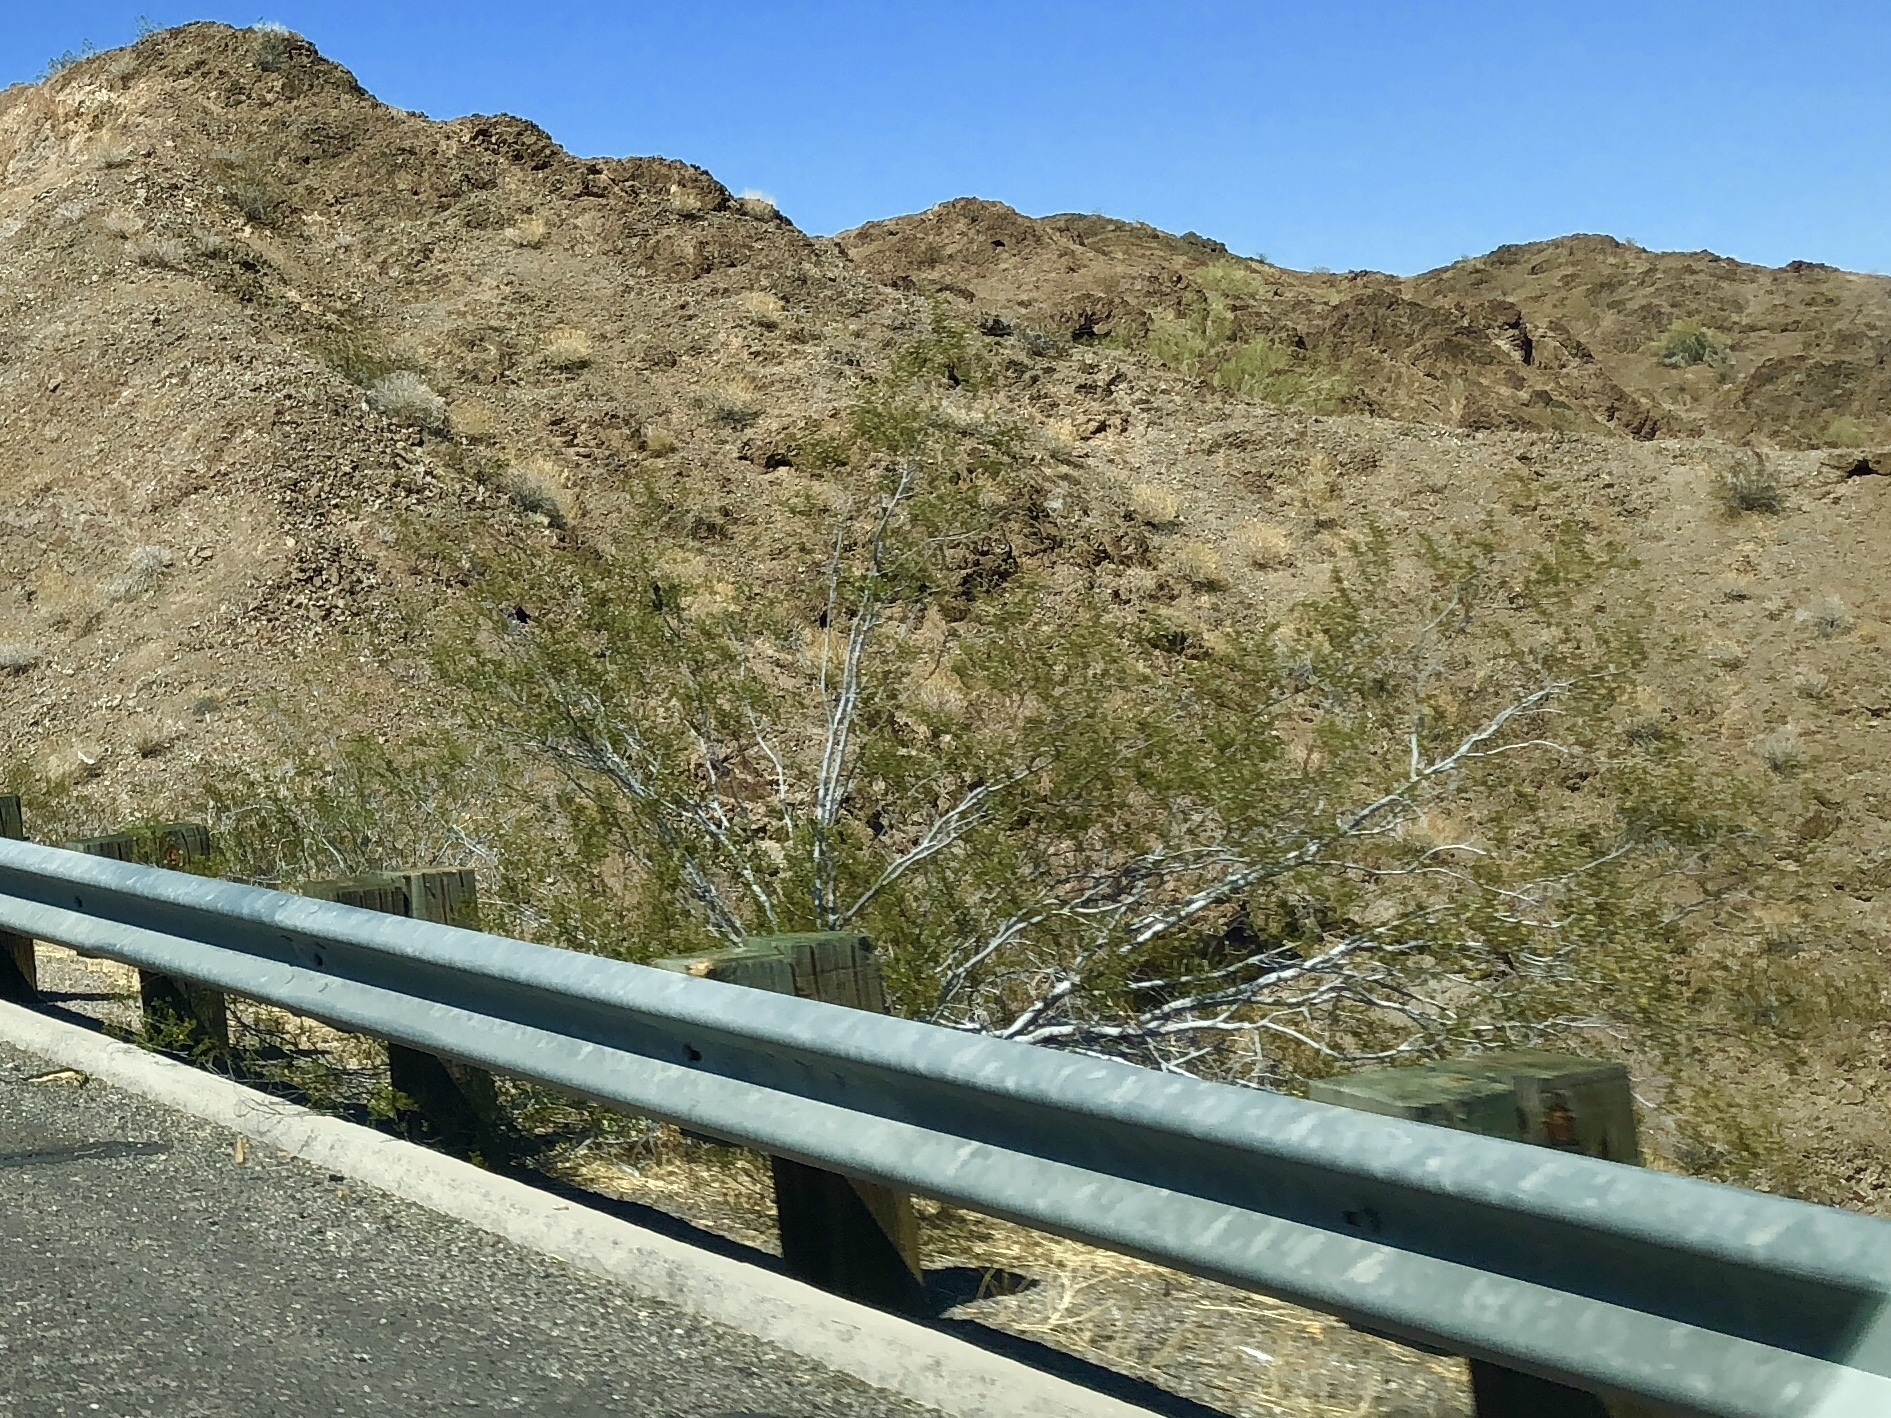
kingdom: Plantae
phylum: Tracheophyta
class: Magnoliopsida
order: Zygophyllales
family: Zygophyllaceae
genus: Larrea
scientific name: Larrea tridentata
